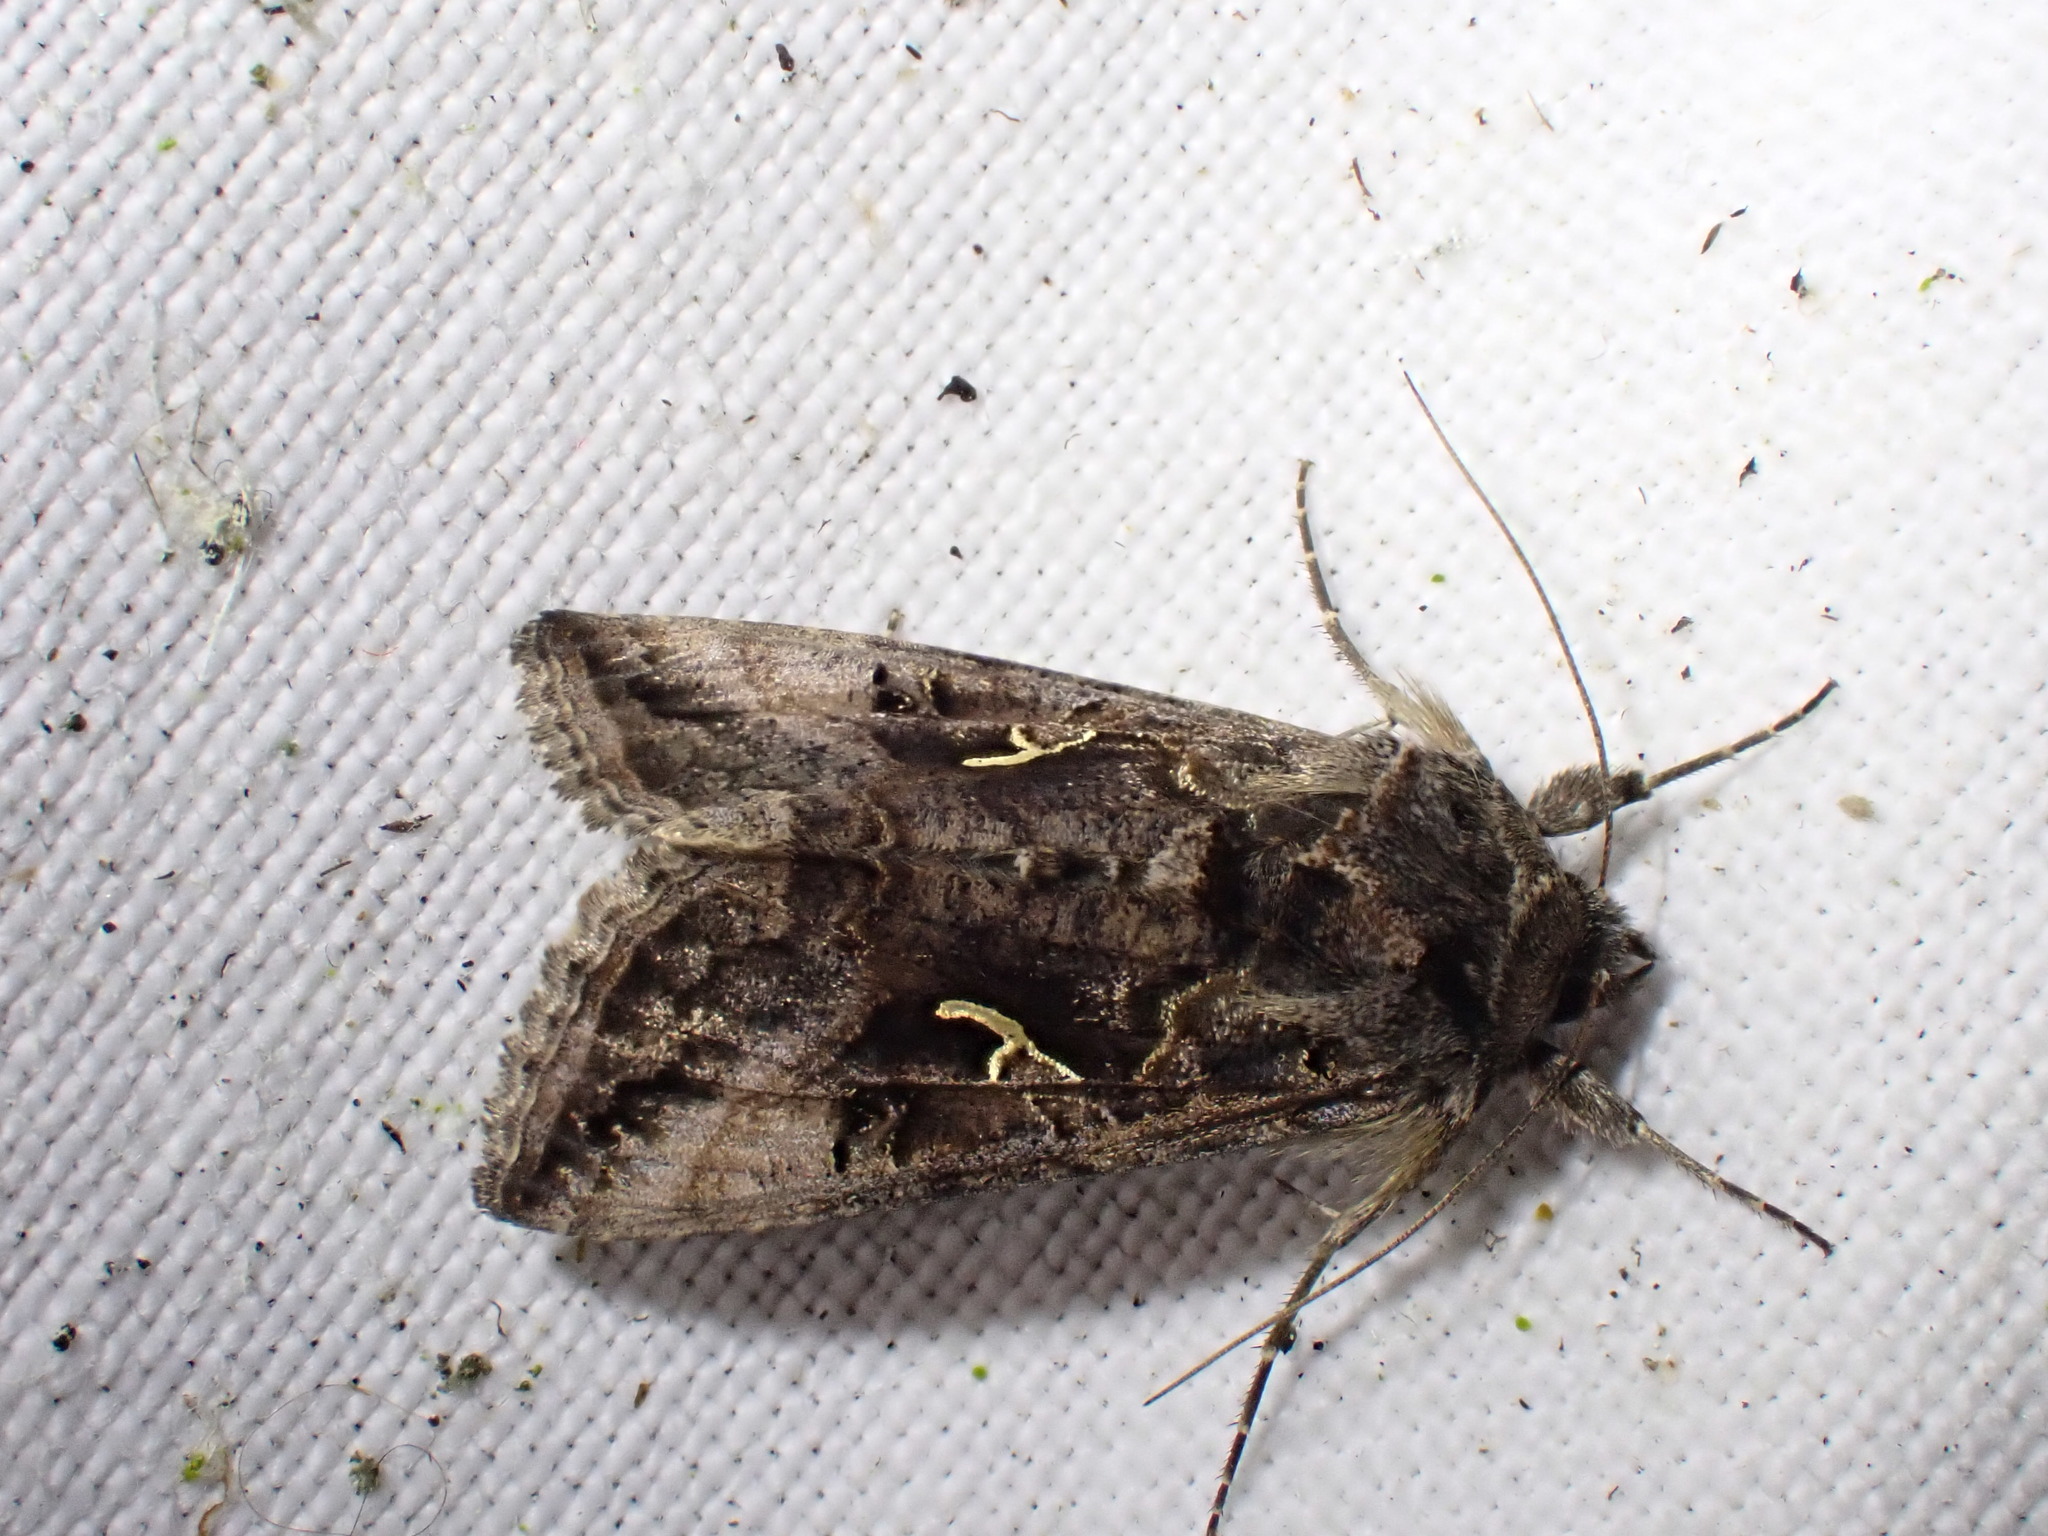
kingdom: Animalia
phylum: Arthropoda
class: Insecta
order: Lepidoptera
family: Noctuidae
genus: Autographa
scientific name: Autographa gamma
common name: Silver y
